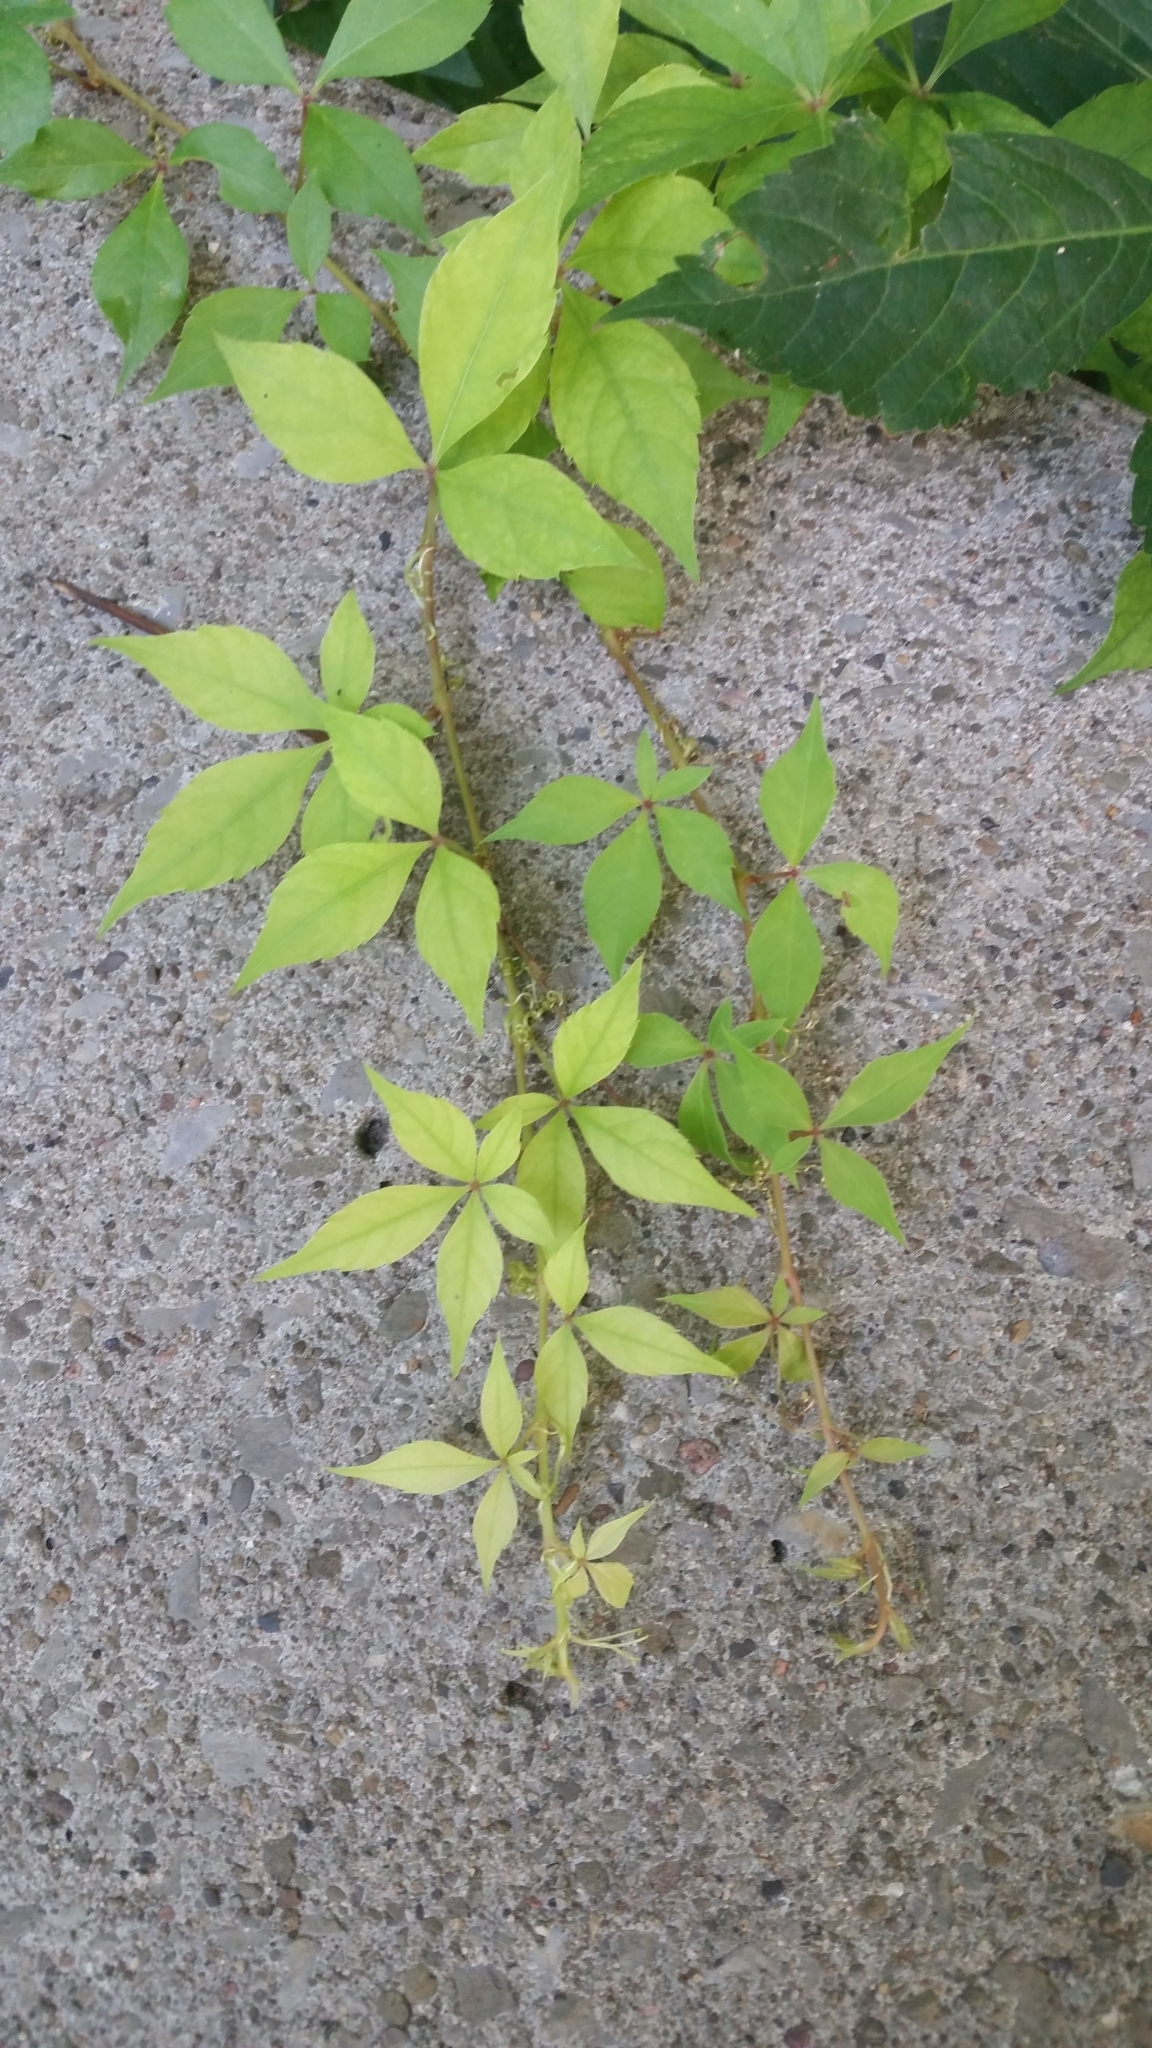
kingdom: Plantae
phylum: Tracheophyta
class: Magnoliopsida
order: Vitales
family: Vitaceae
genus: Parthenocissus
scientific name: Parthenocissus quinquefolia
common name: Virginia-creeper
